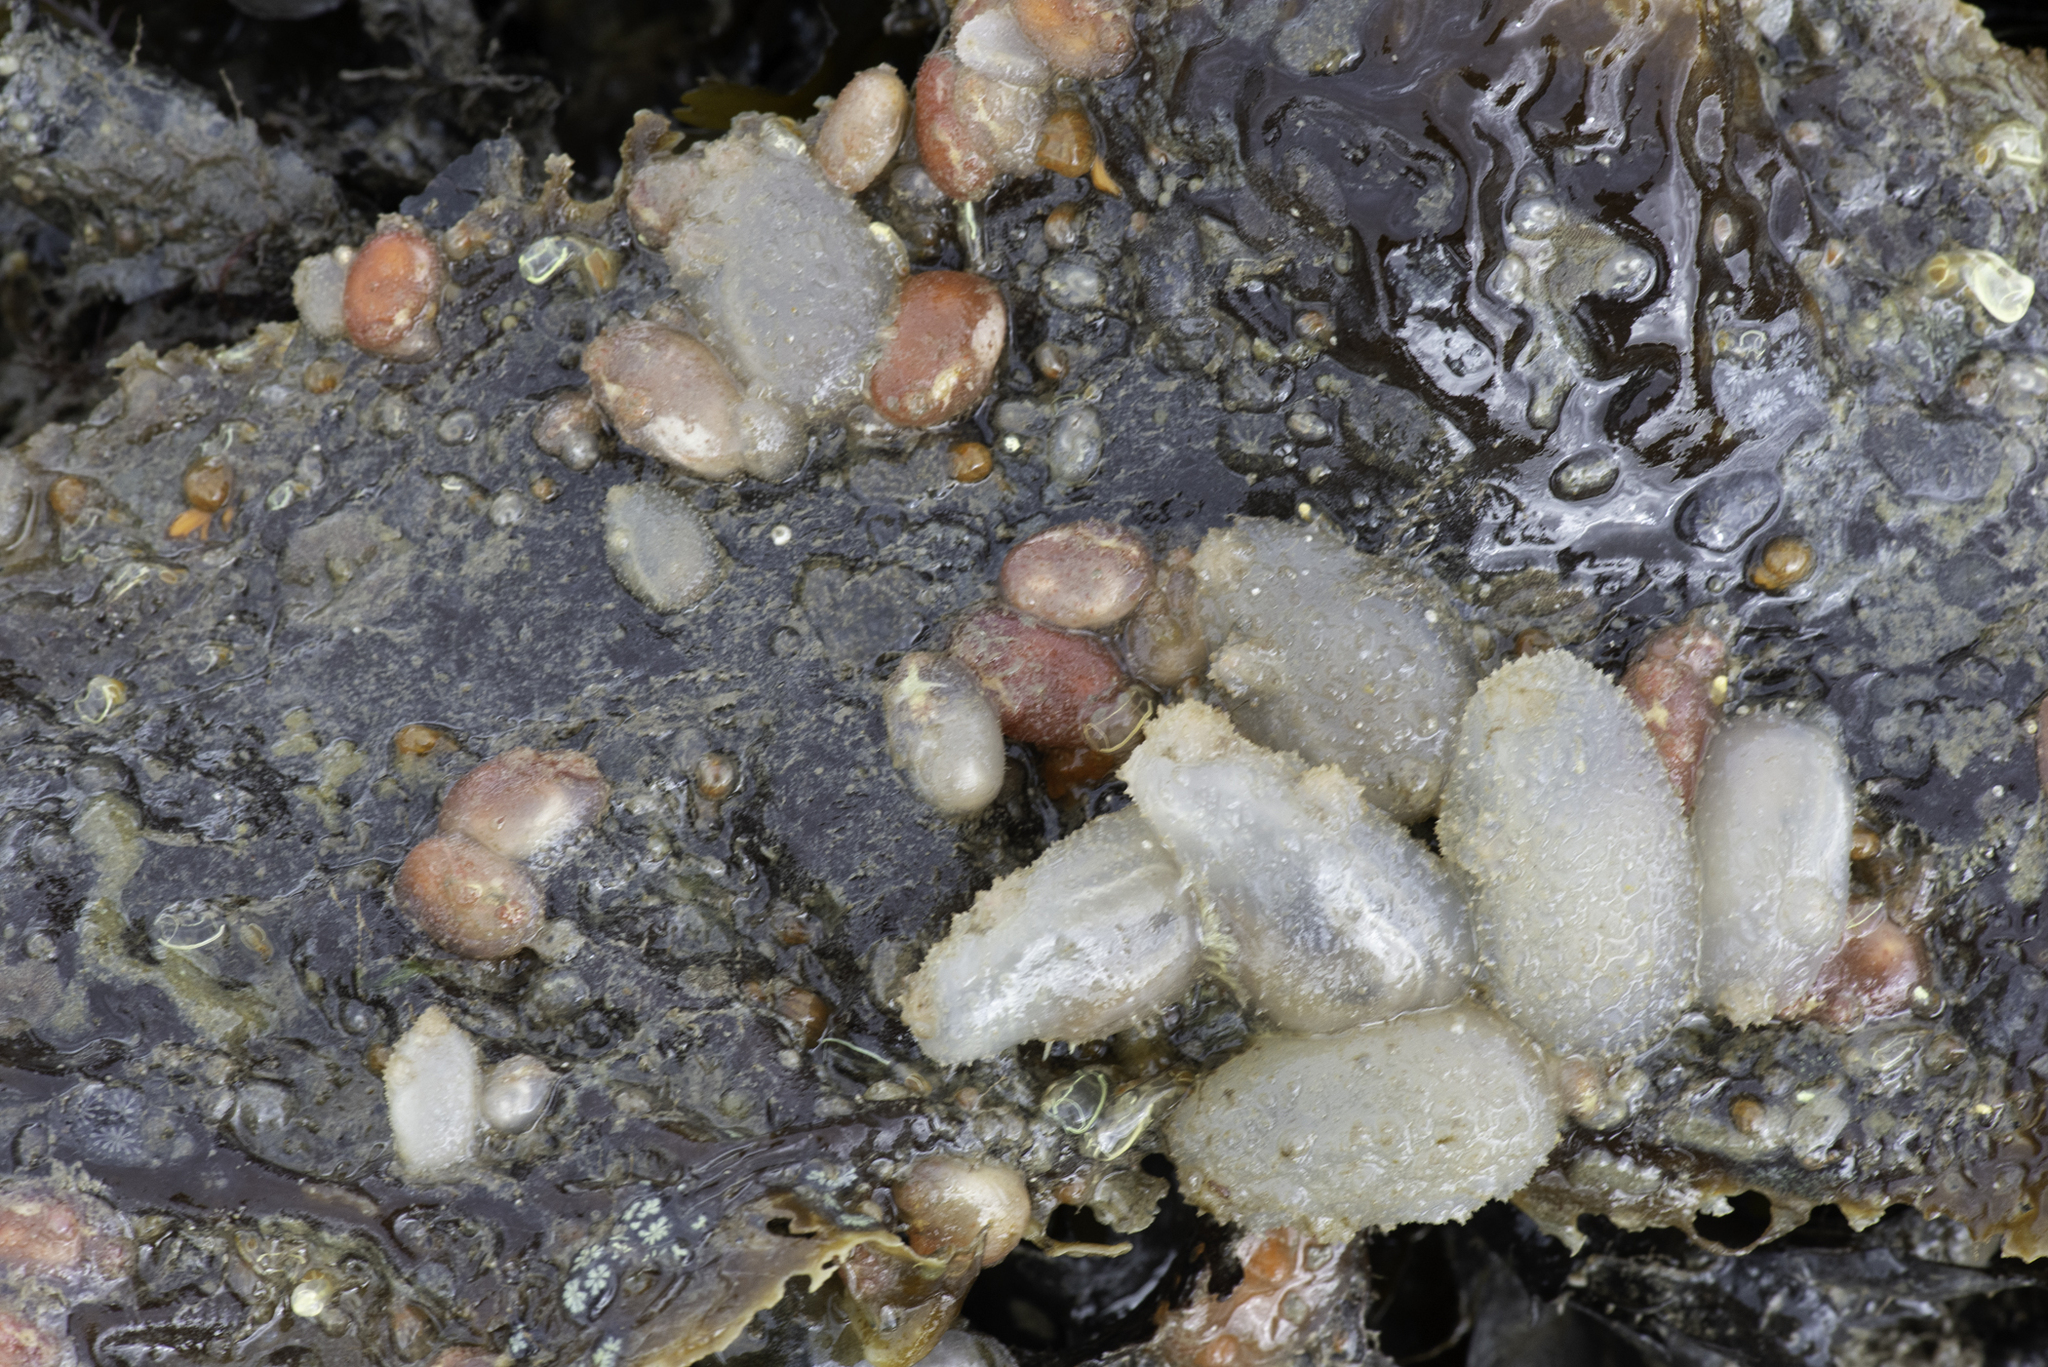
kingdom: Animalia
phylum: Chordata
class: Ascidiacea
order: Phlebobranchia
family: Ascidiidae
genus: Ascidiella
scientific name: Ascidiella aspersa
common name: Dirty sea-squirt
